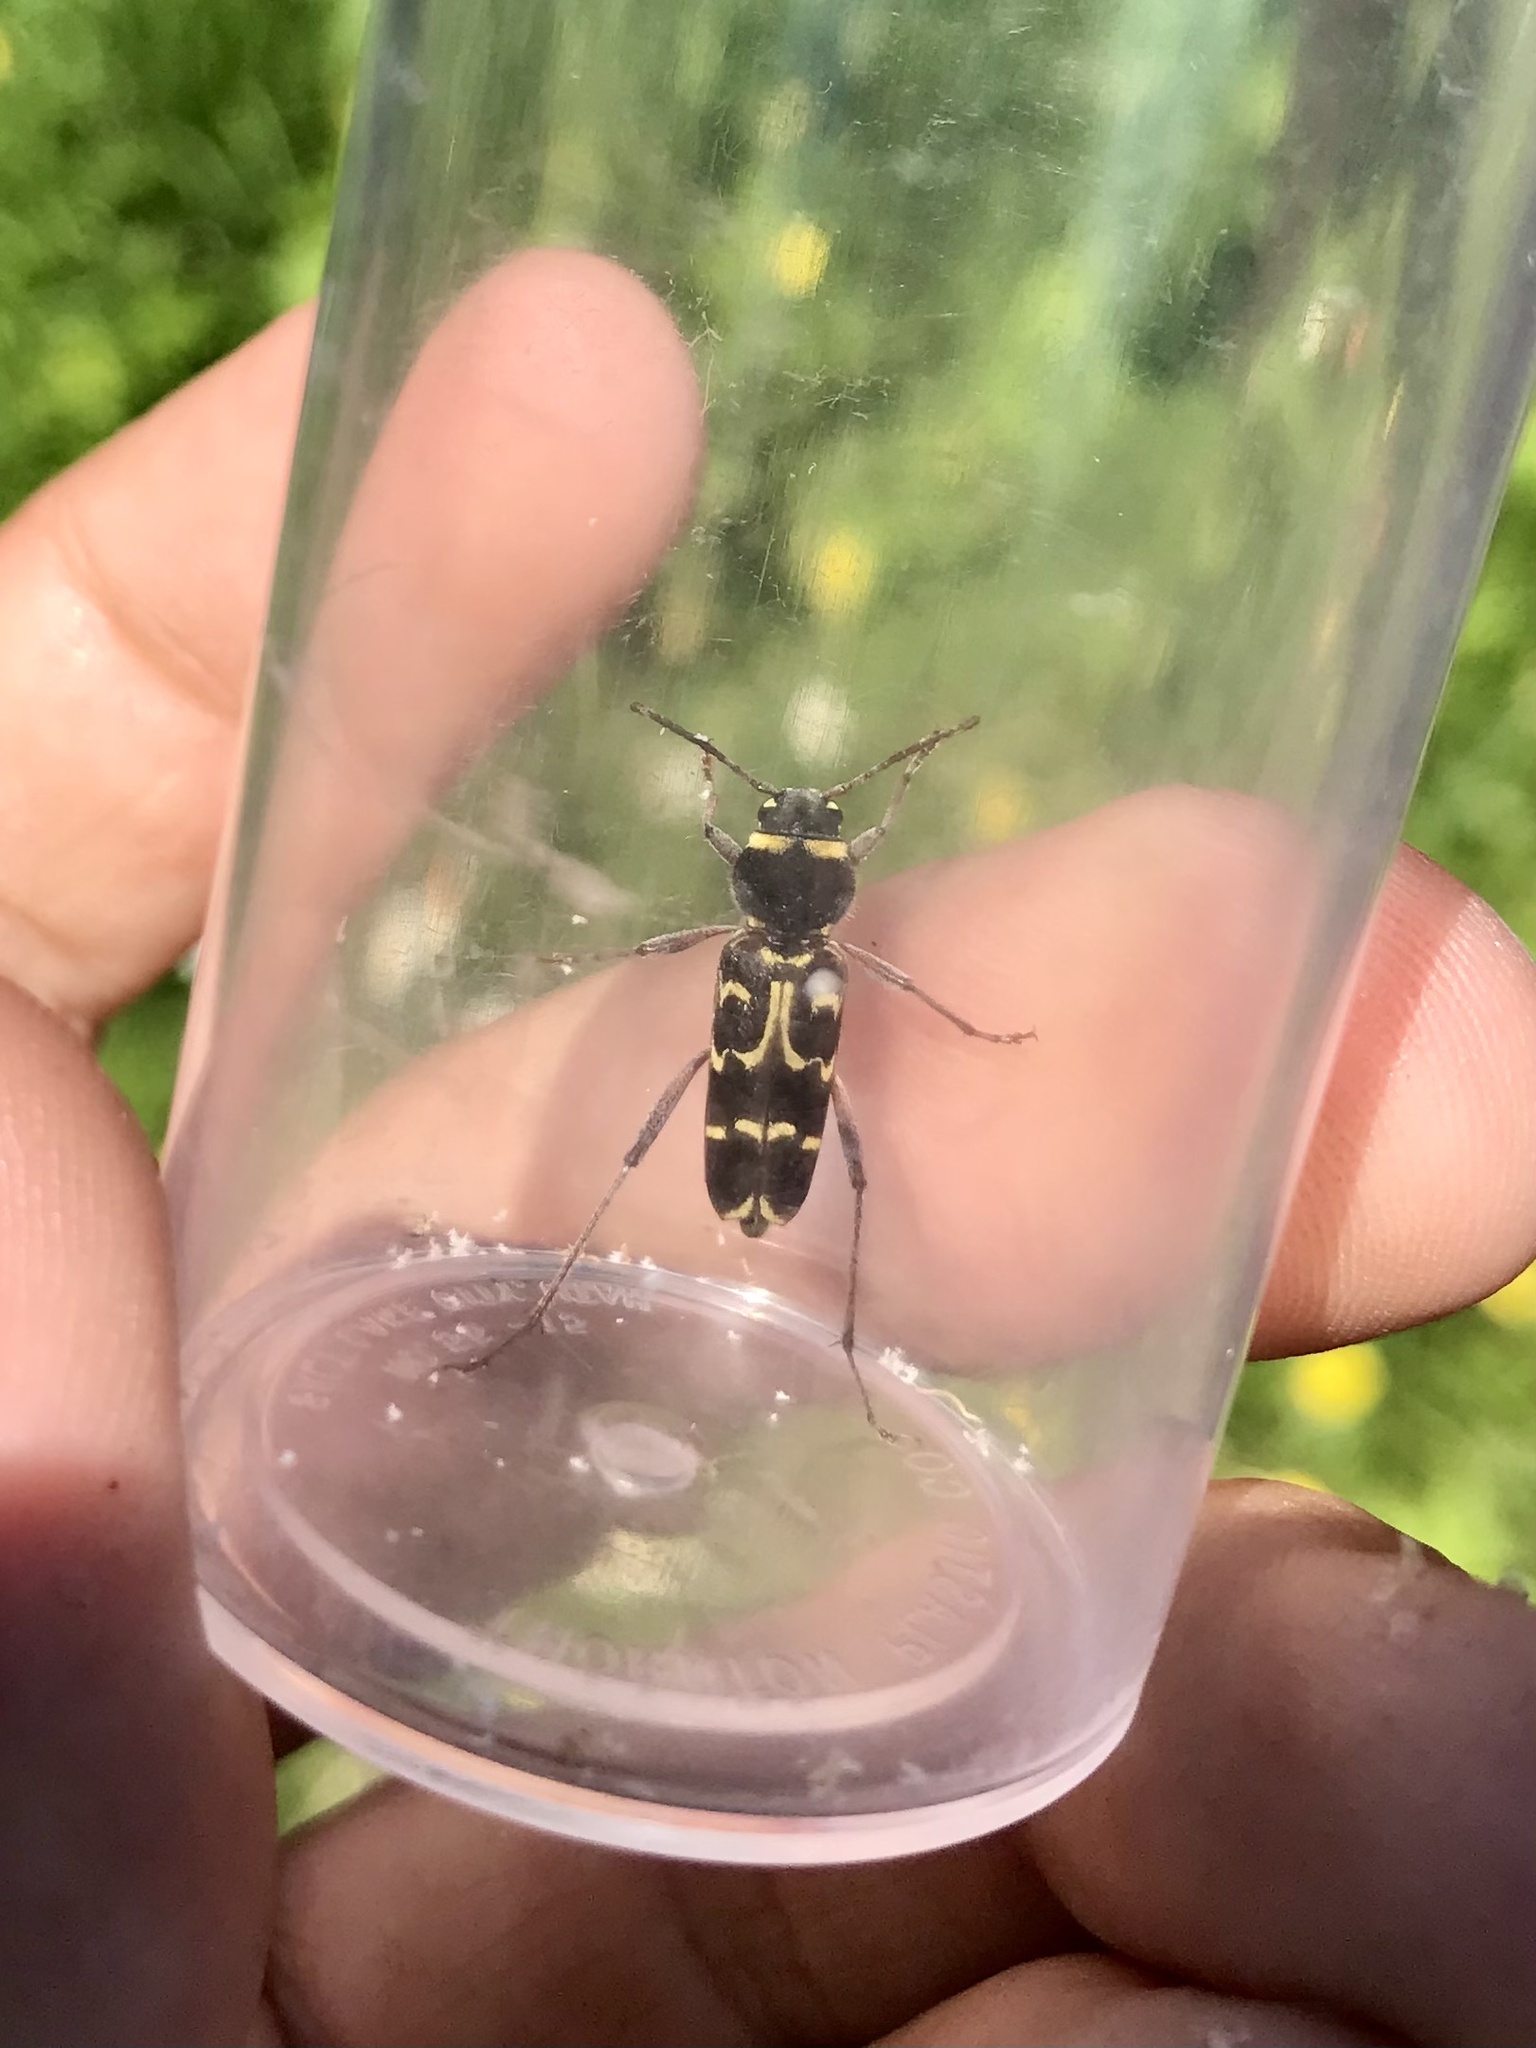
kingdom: Animalia
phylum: Arthropoda
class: Insecta
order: Coleoptera
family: Cerambycidae
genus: Xylotrechus
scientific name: Xylotrechus undulatus
